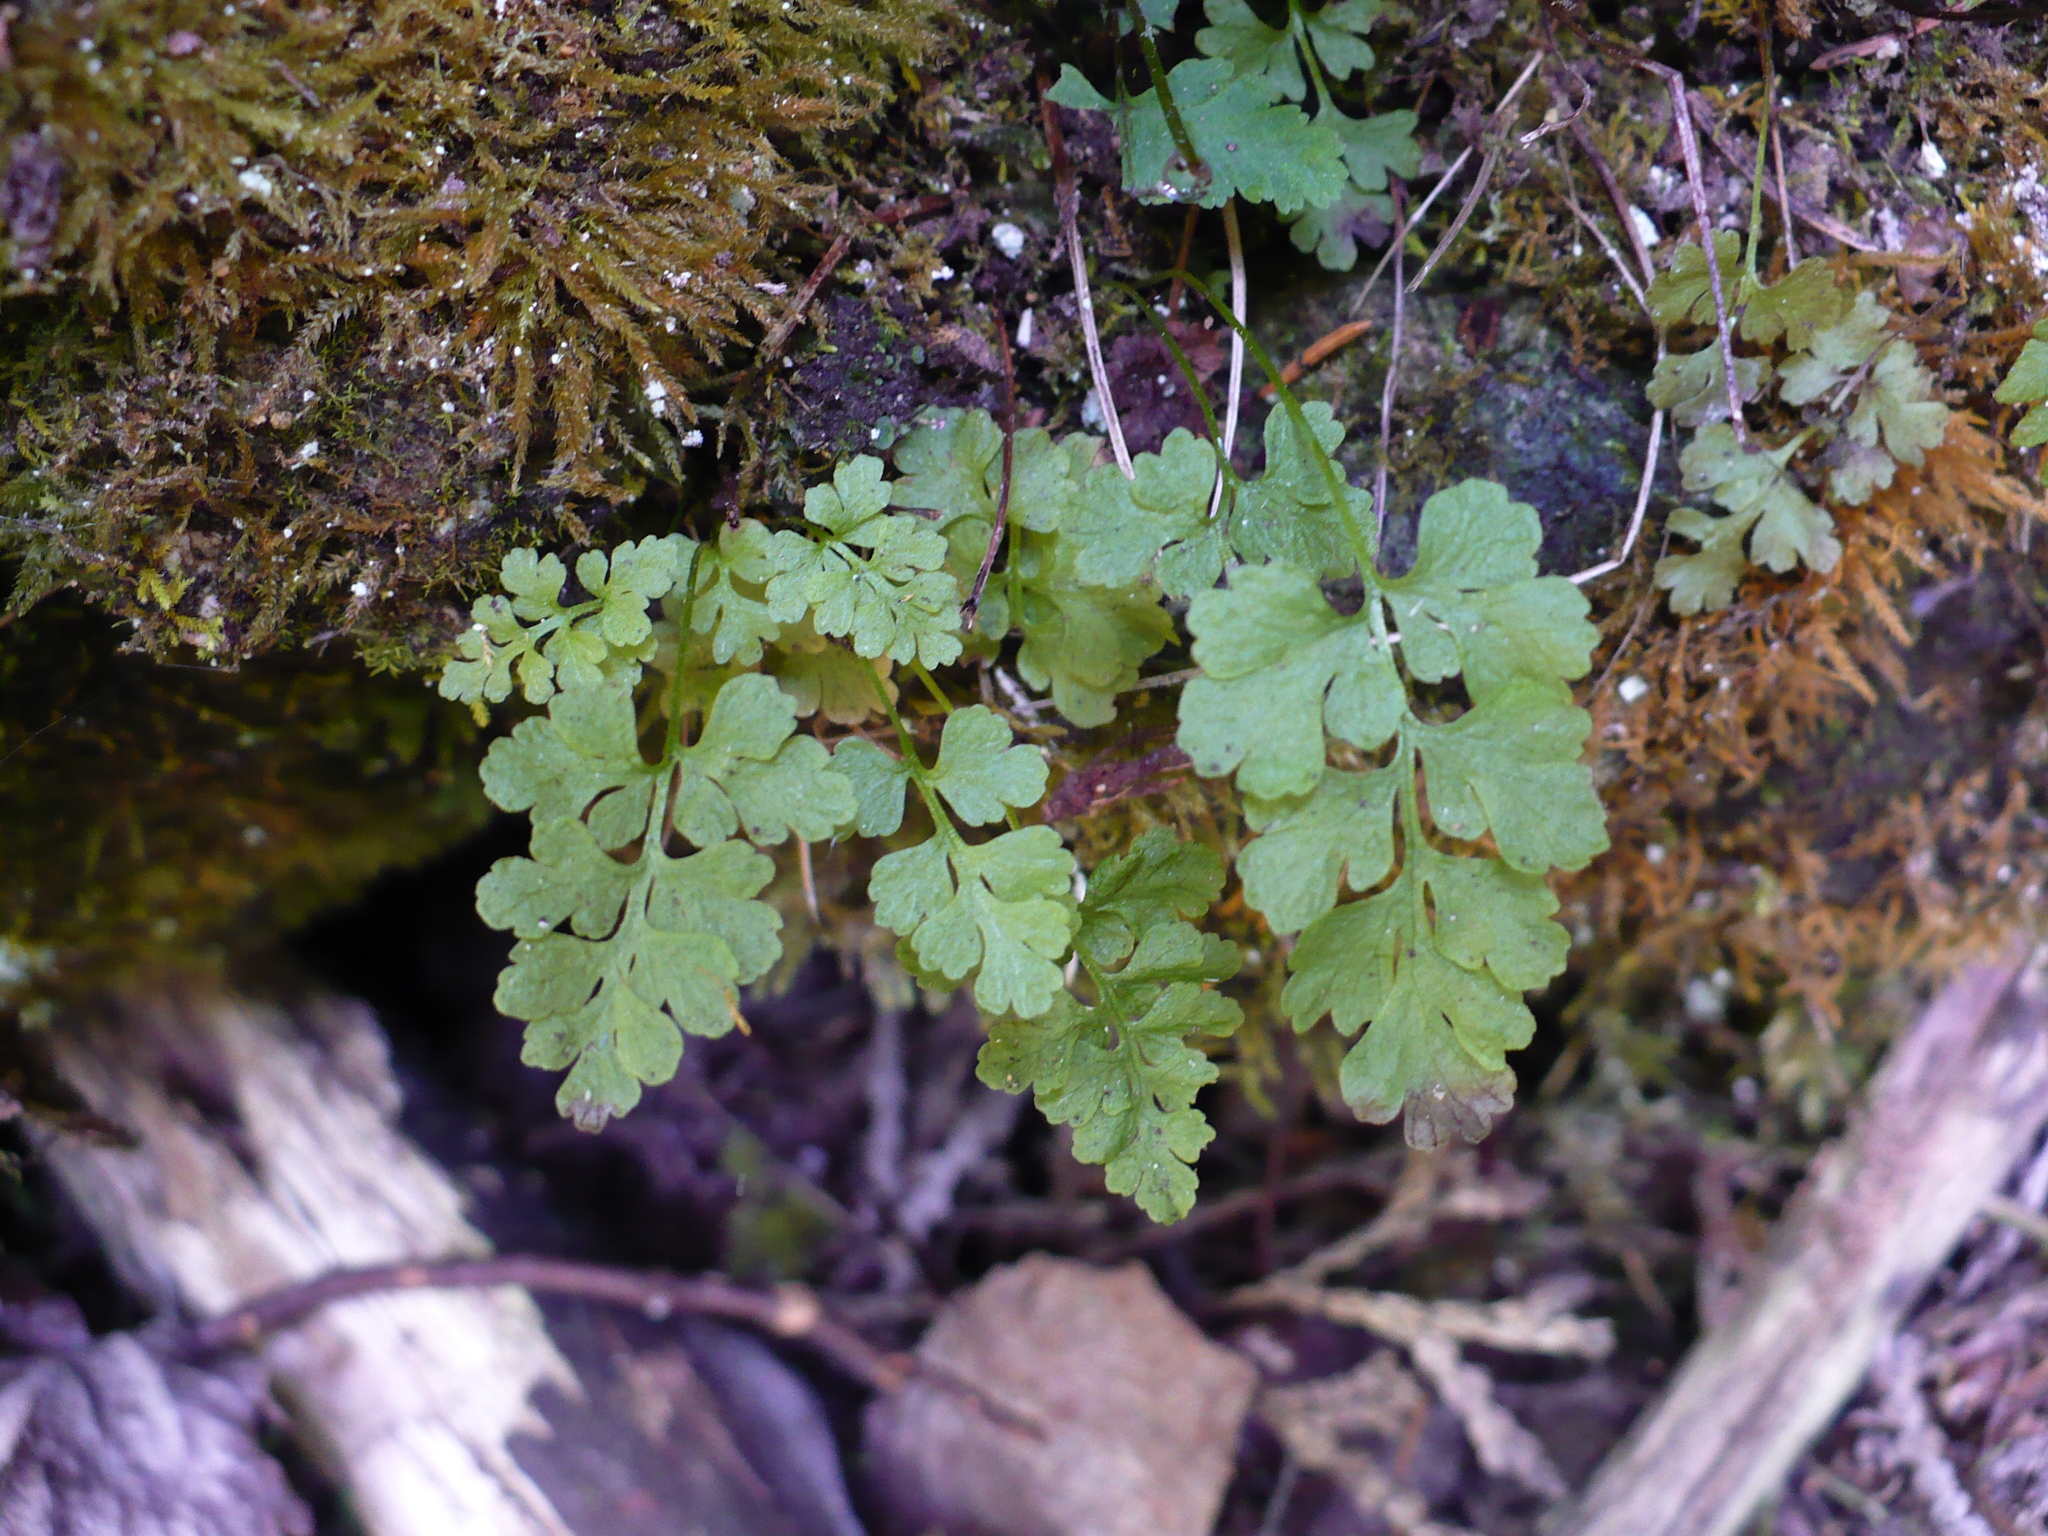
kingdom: Plantae
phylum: Tracheophyta
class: Polypodiopsida
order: Polypodiales
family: Pteridaceae
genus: Cryptogramma
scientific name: Cryptogramma stelleri
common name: Cliff-brake
